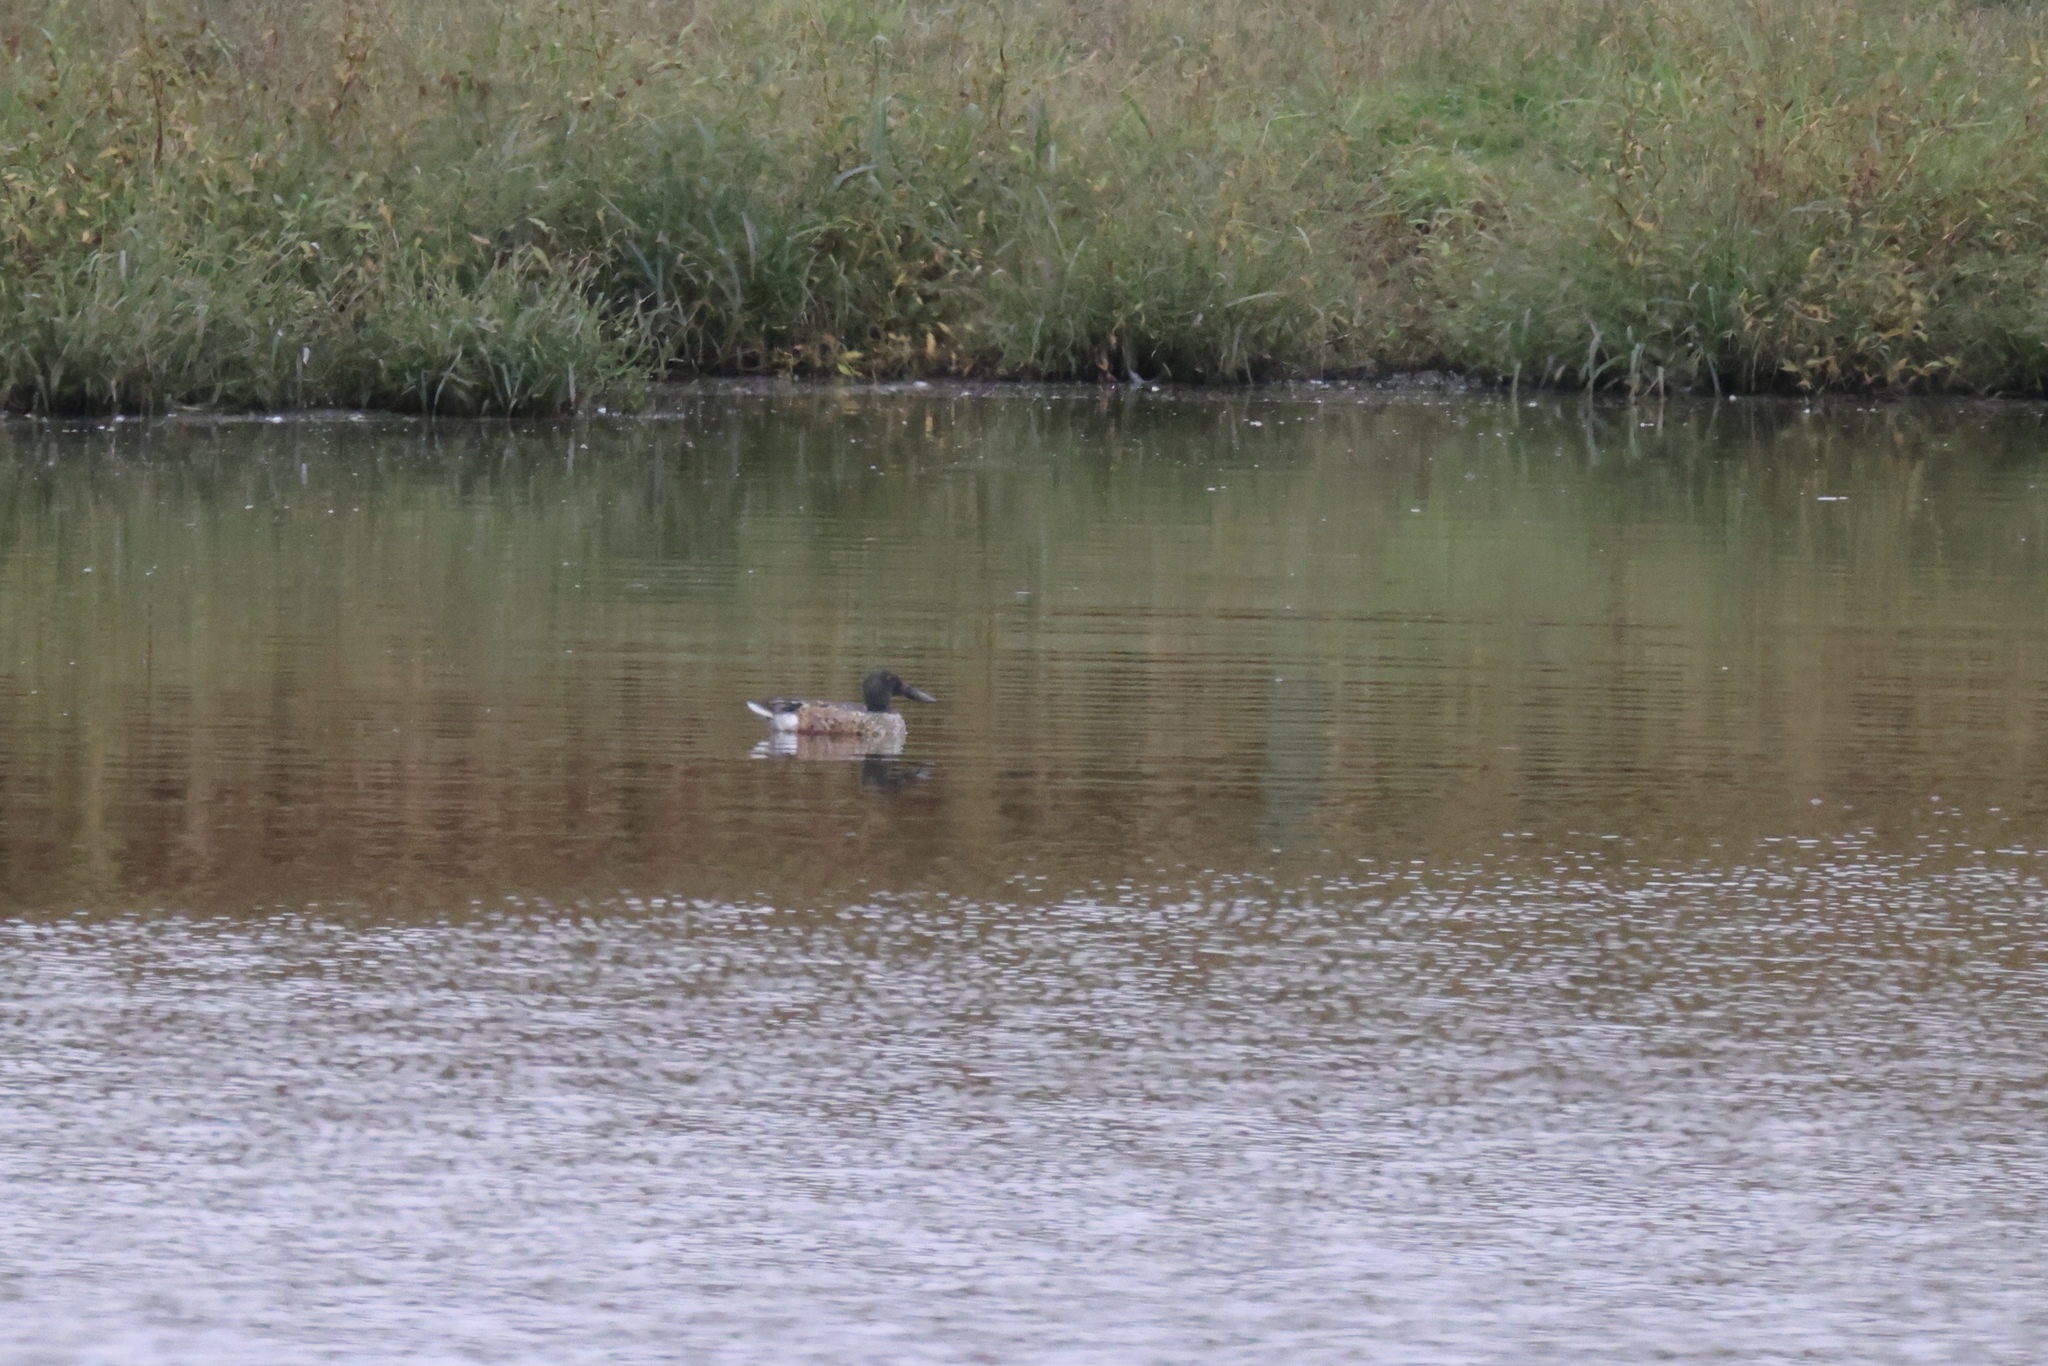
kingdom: Animalia
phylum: Chordata
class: Aves
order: Anseriformes
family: Anatidae
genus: Spatula
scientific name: Spatula clypeata
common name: Northern shoveler
